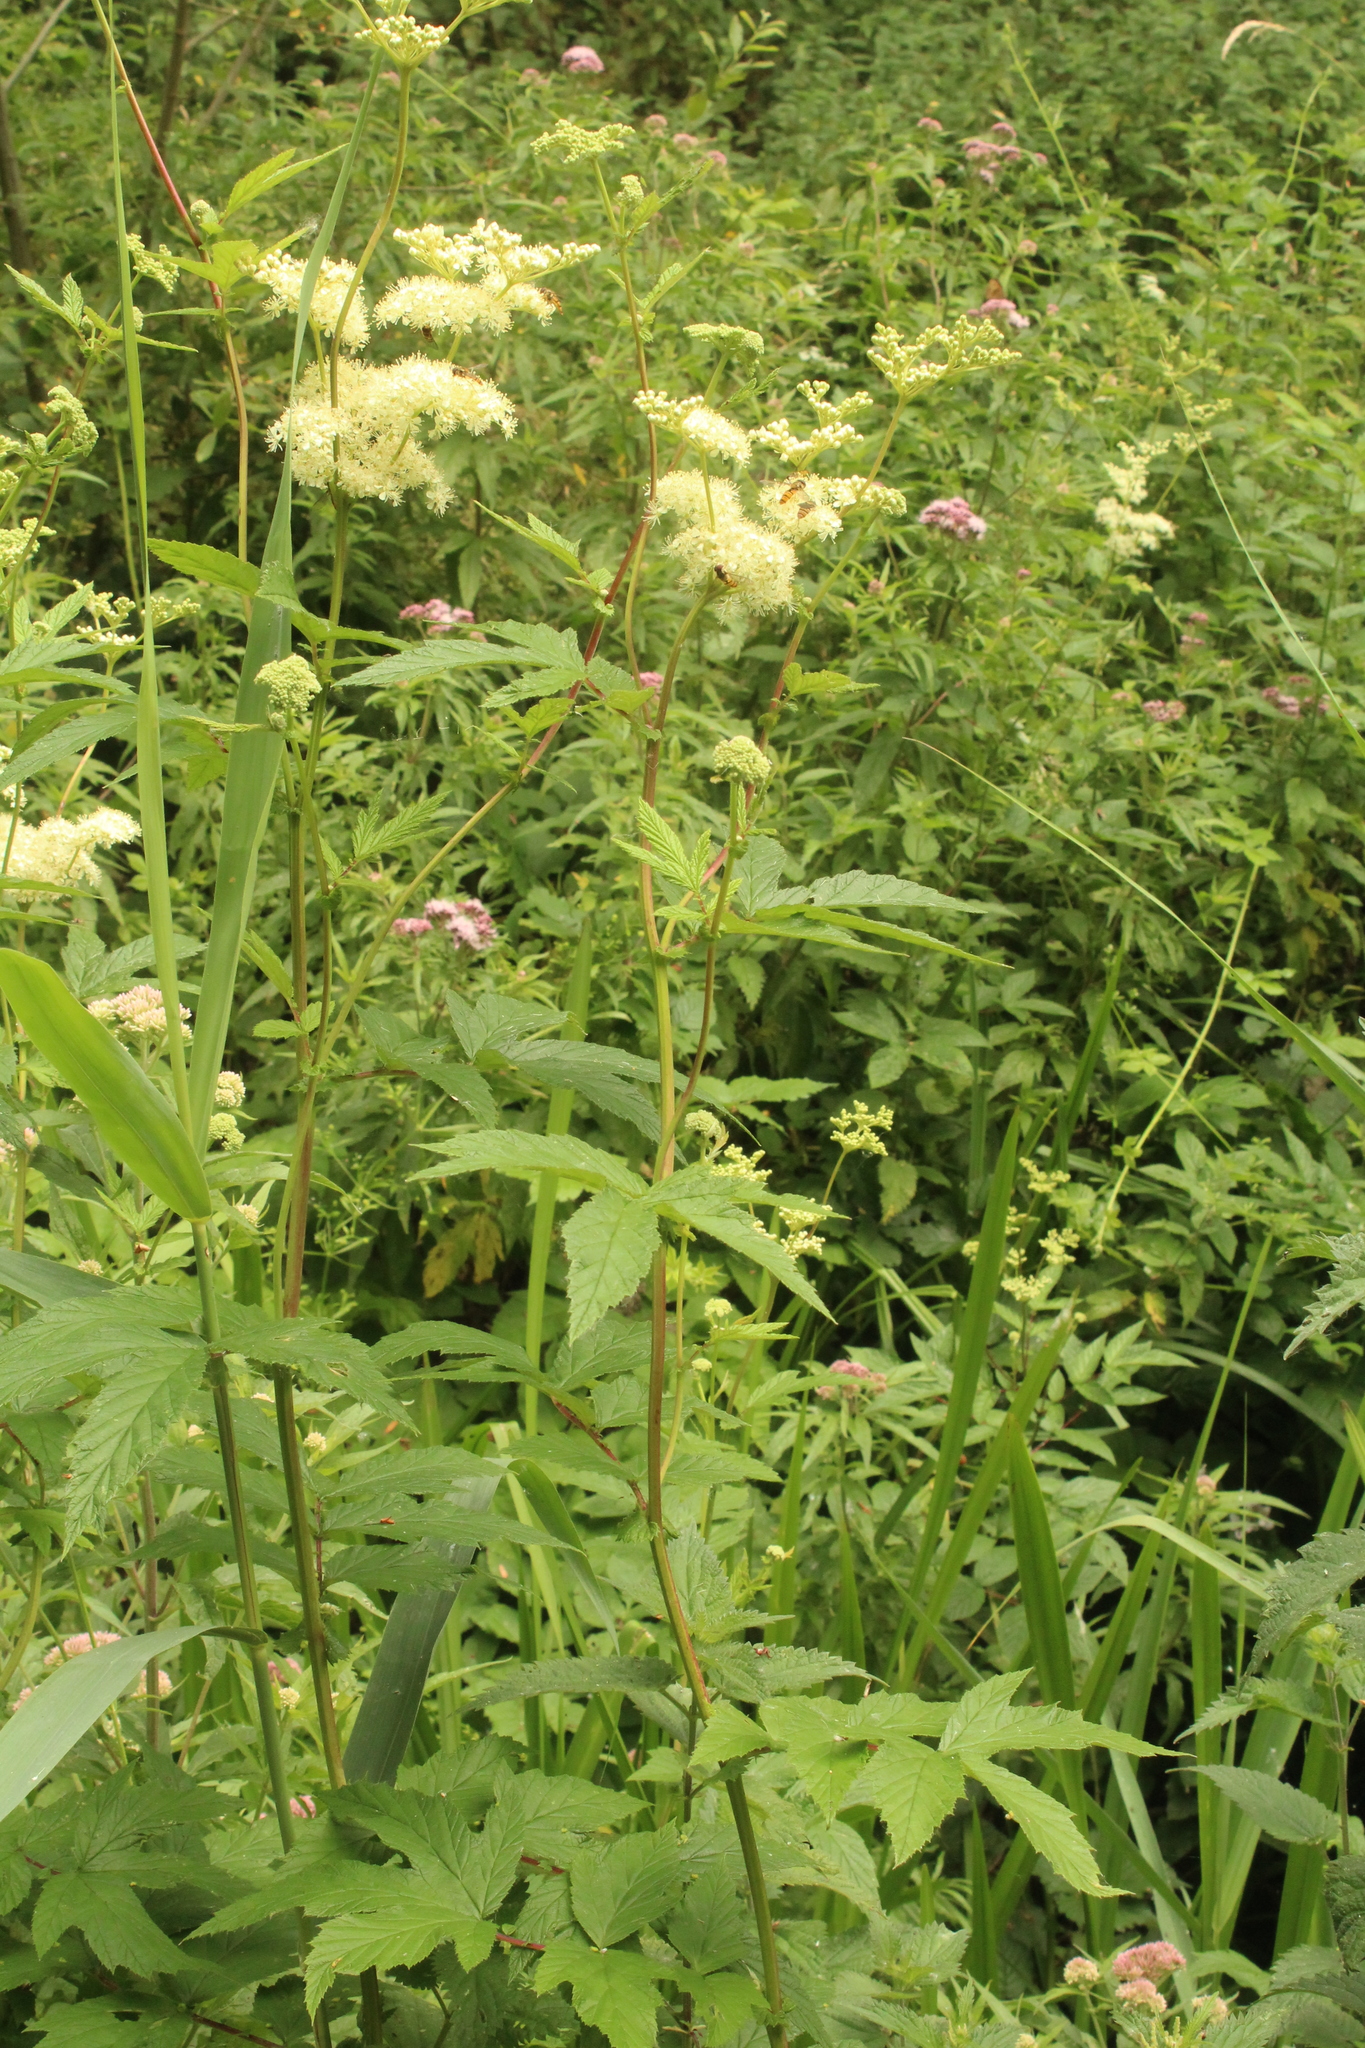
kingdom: Plantae
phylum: Tracheophyta
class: Magnoliopsida
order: Rosales
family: Rosaceae
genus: Filipendula
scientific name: Filipendula ulmaria
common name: Meadowsweet
